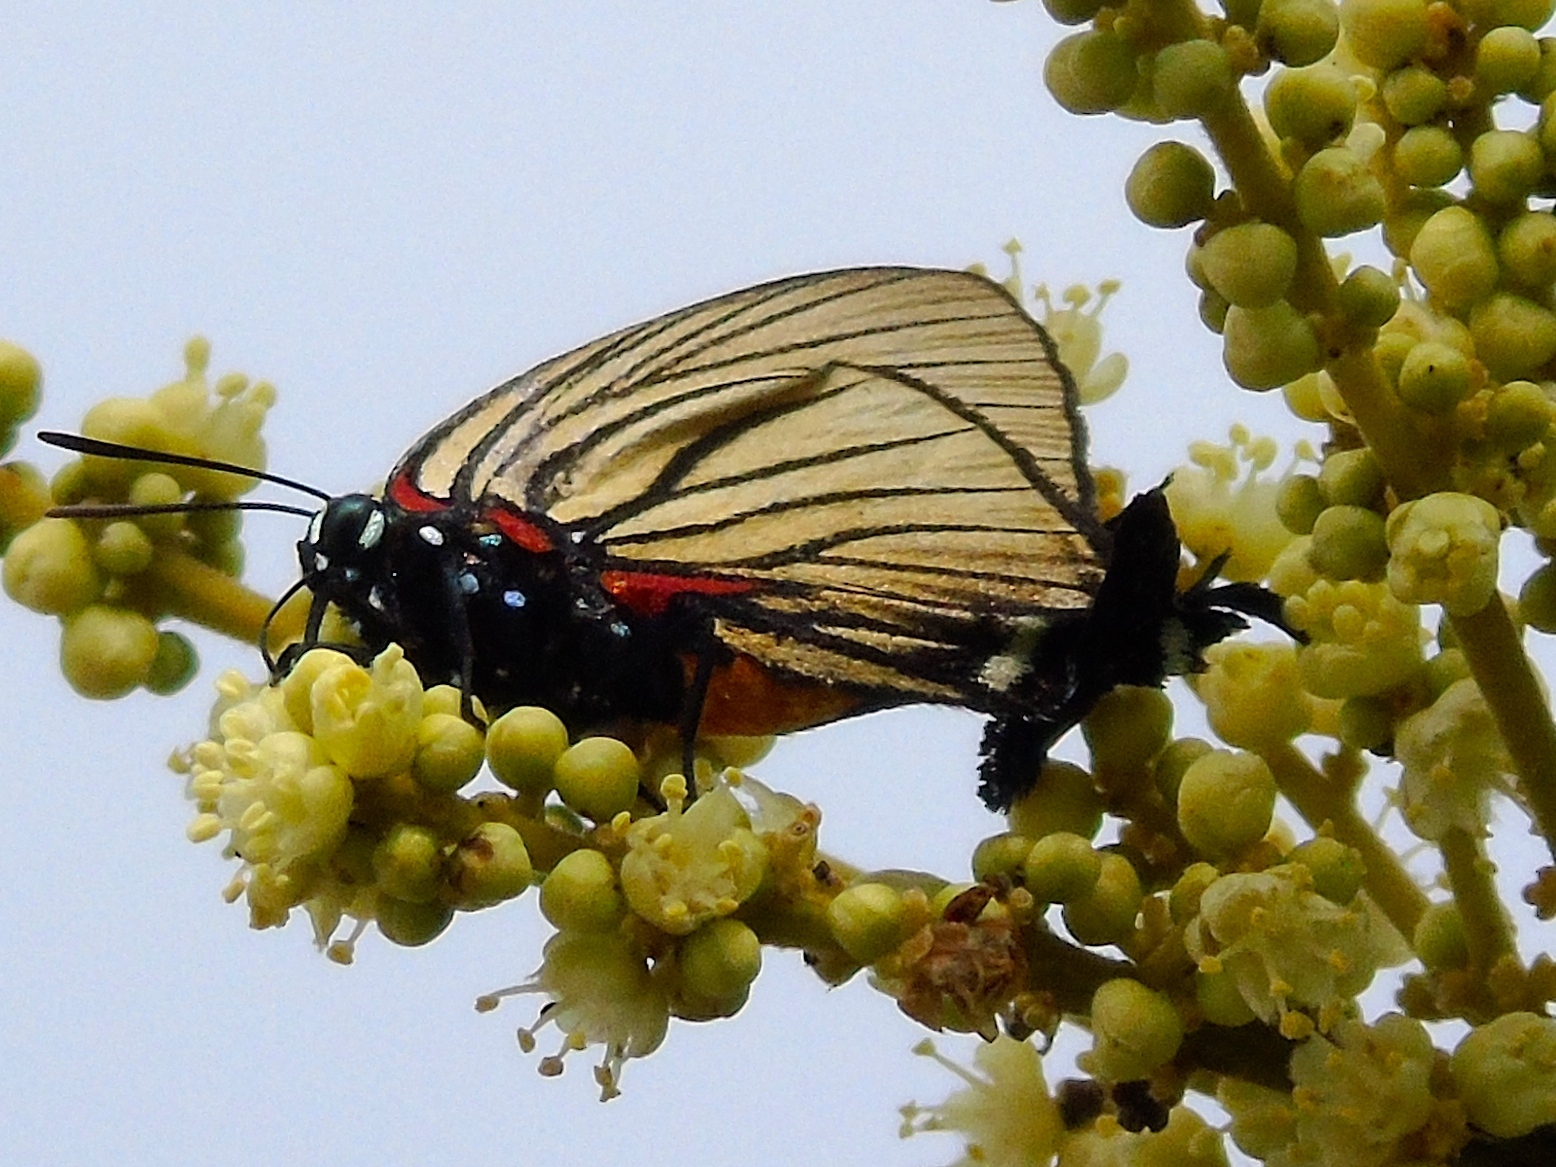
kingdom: Animalia
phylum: Arthropoda
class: Insecta
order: Lepidoptera
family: Lycaenidae
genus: Thecla
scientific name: Thecla polybe
